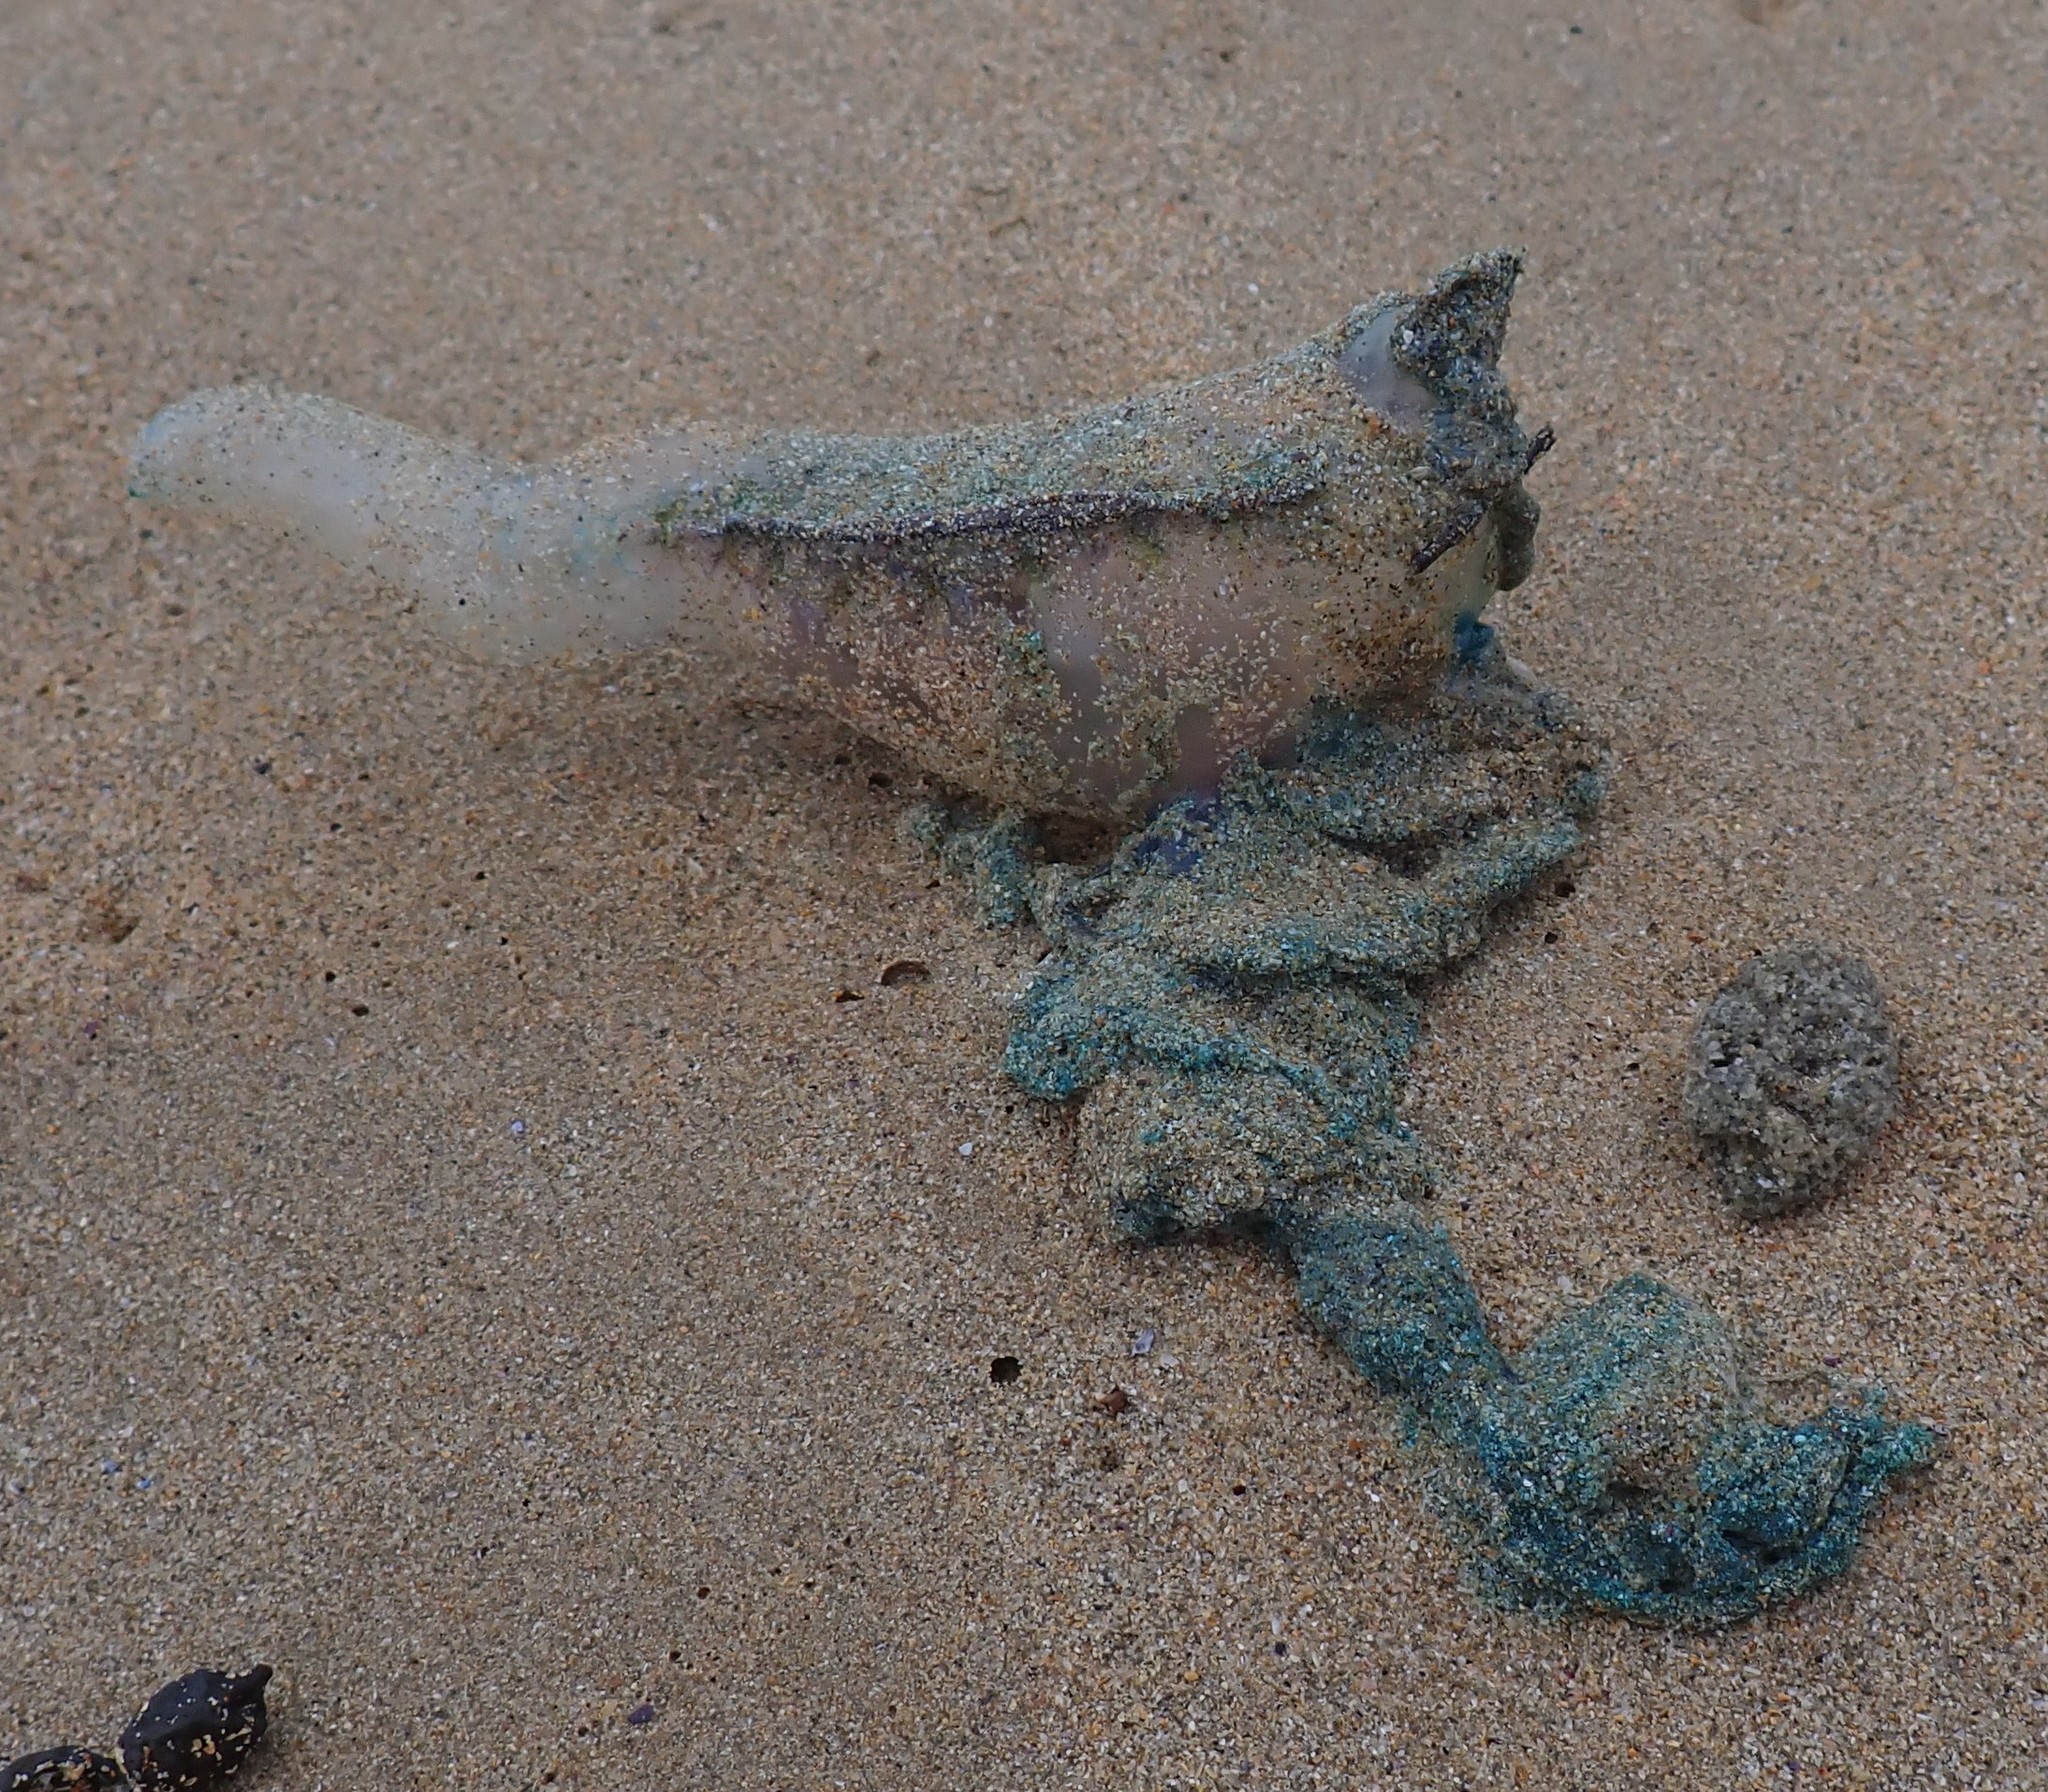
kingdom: Animalia
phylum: Cnidaria
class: Hydrozoa
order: Siphonophorae
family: Physaliidae
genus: Physalia
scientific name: Physalia physalis
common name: Portuguese man-of-war
